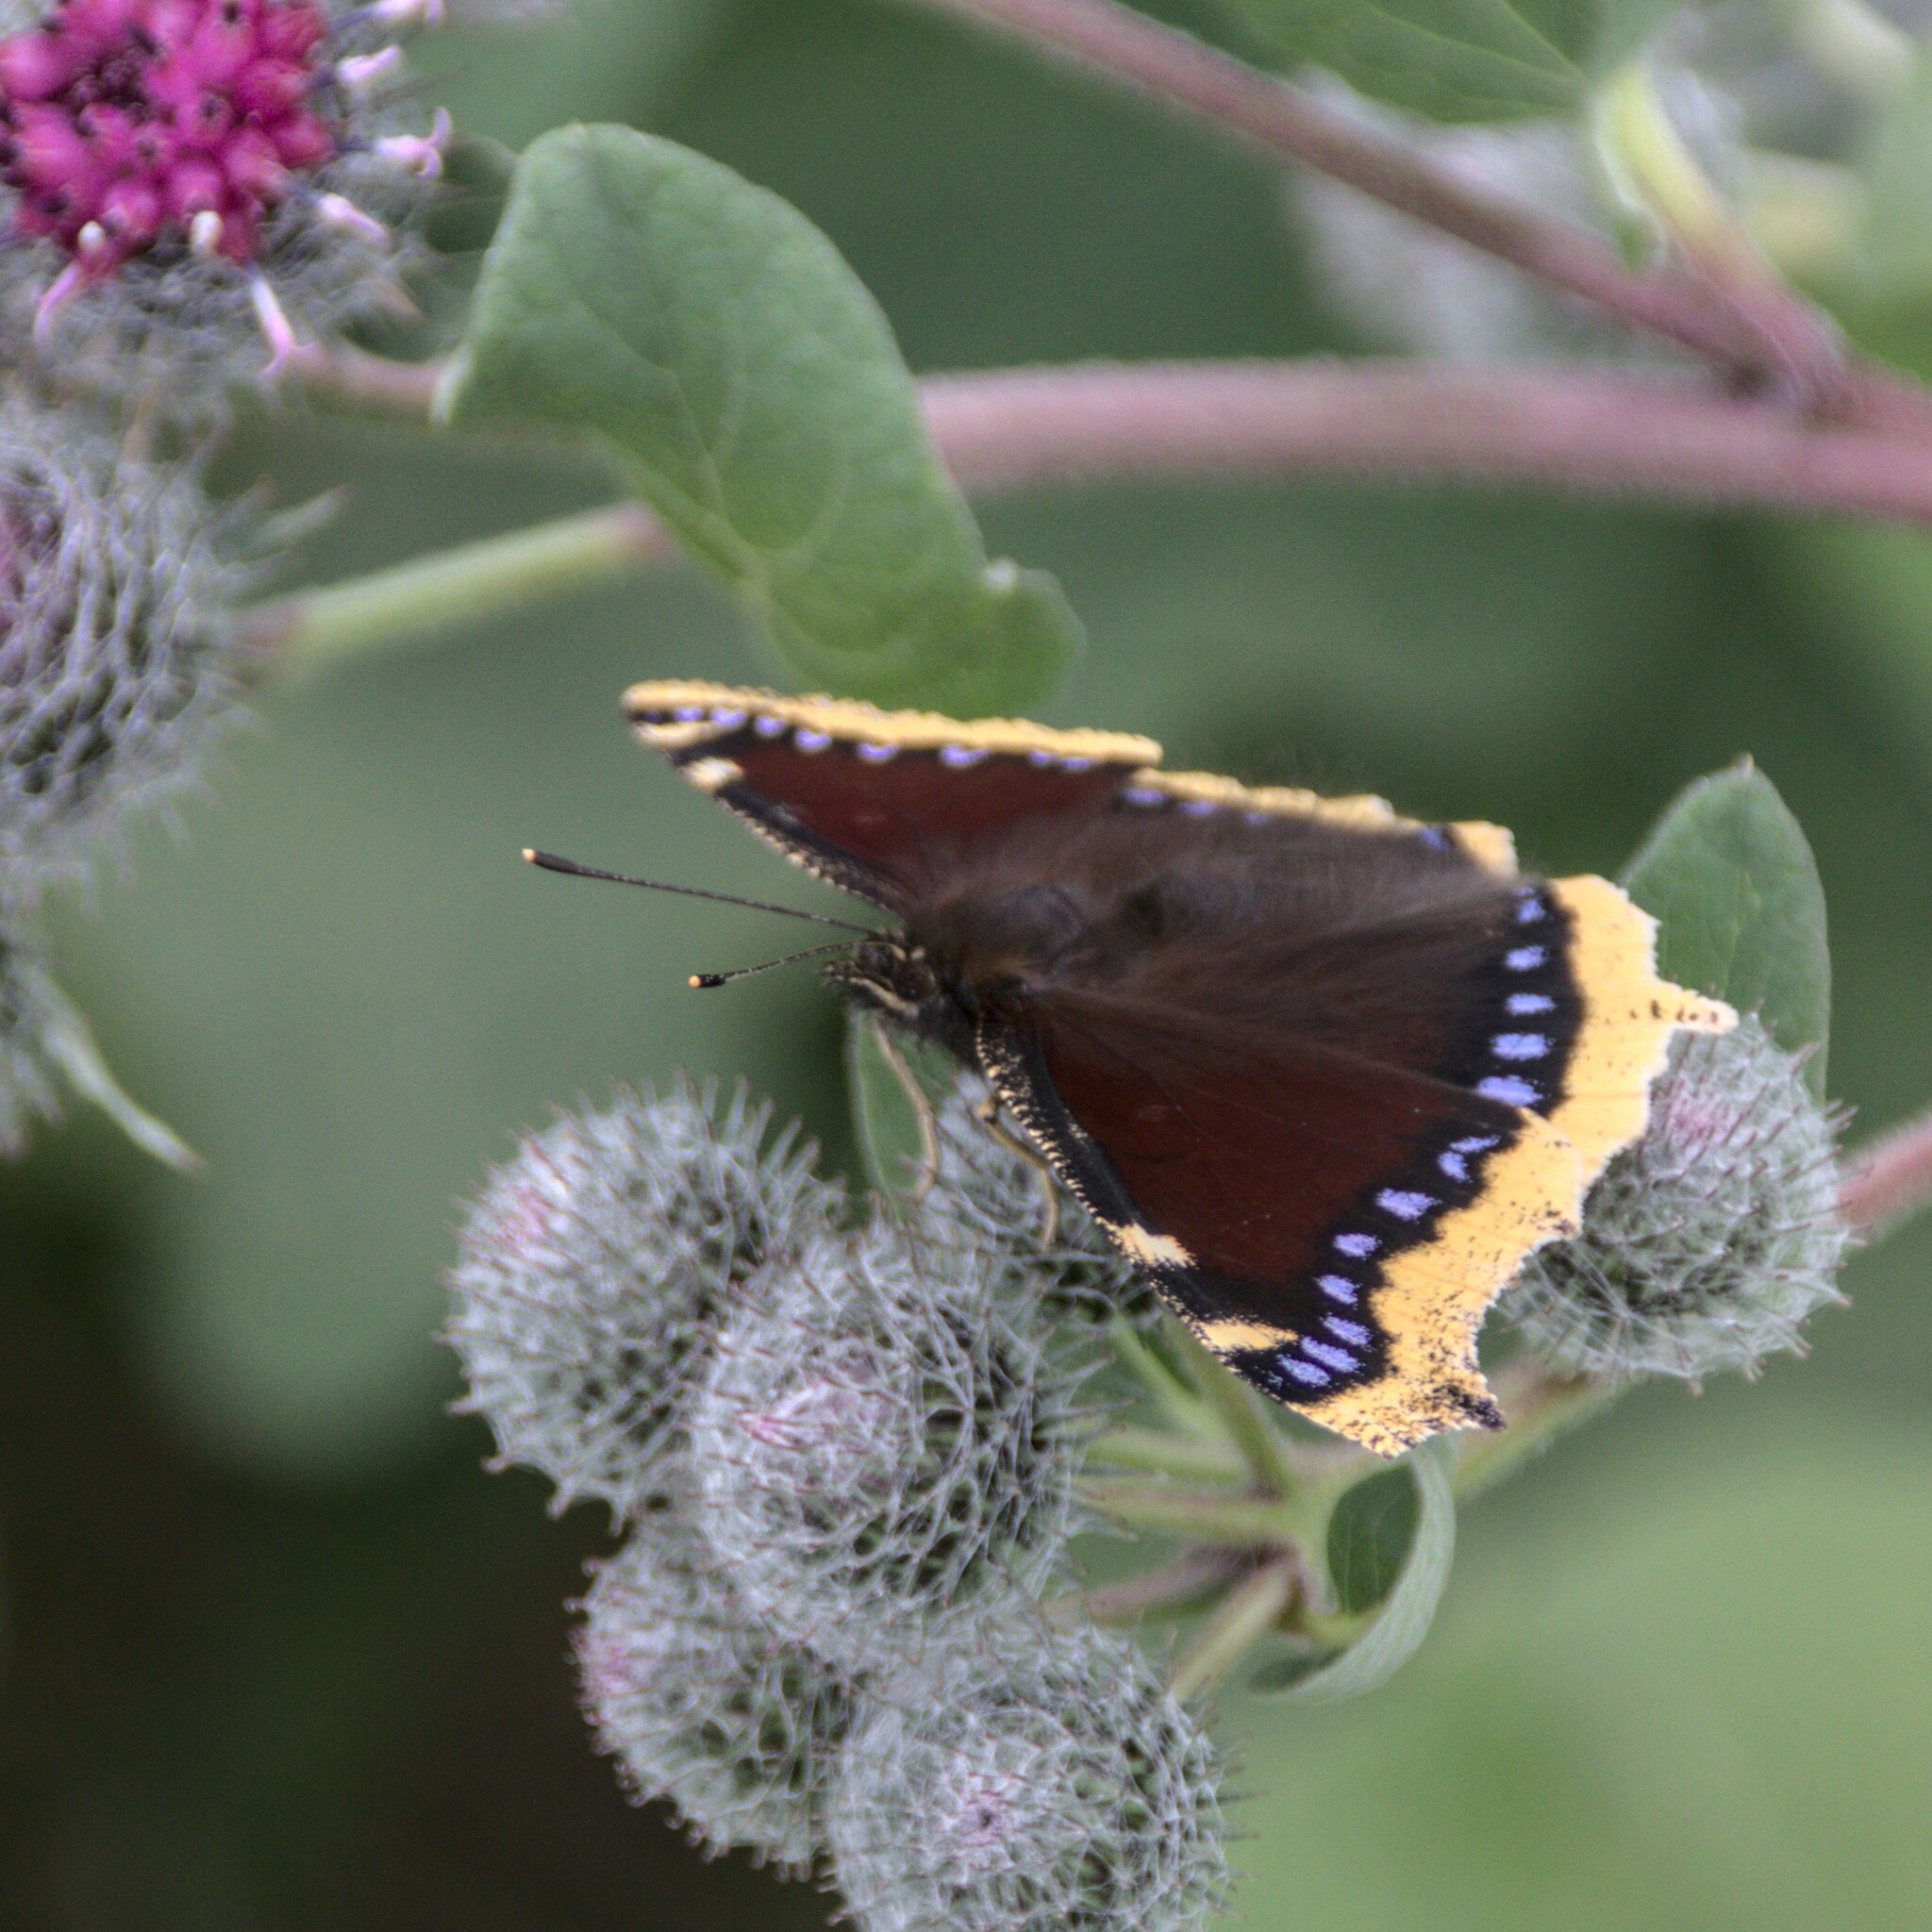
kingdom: Animalia
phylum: Arthropoda
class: Insecta
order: Lepidoptera
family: Nymphalidae
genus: Nymphalis
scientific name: Nymphalis antiopa
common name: Camberwell beauty
